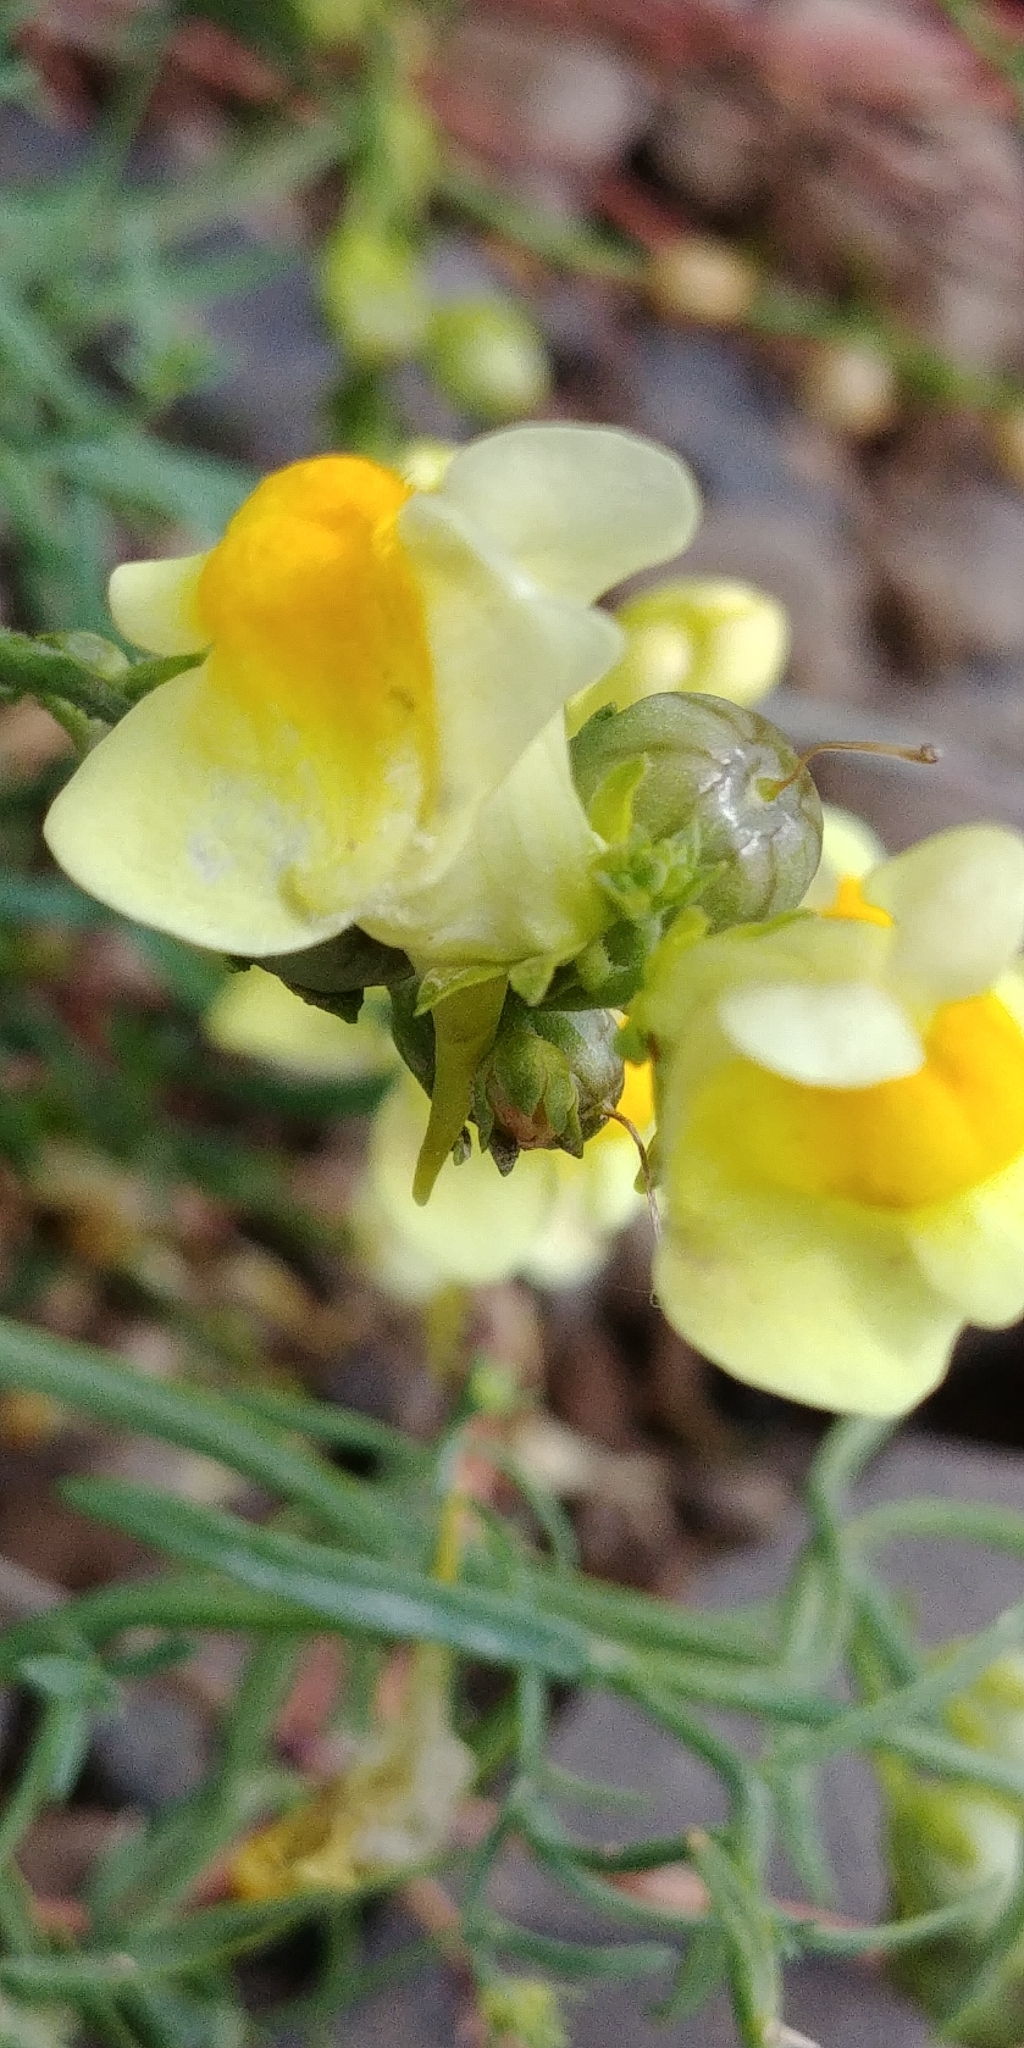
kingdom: Plantae
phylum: Tracheophyta
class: Magnoliopsida
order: Lamiales
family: Plantaginaceae
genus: Linaria
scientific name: Linaria vulgaris
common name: Butter and eggs
